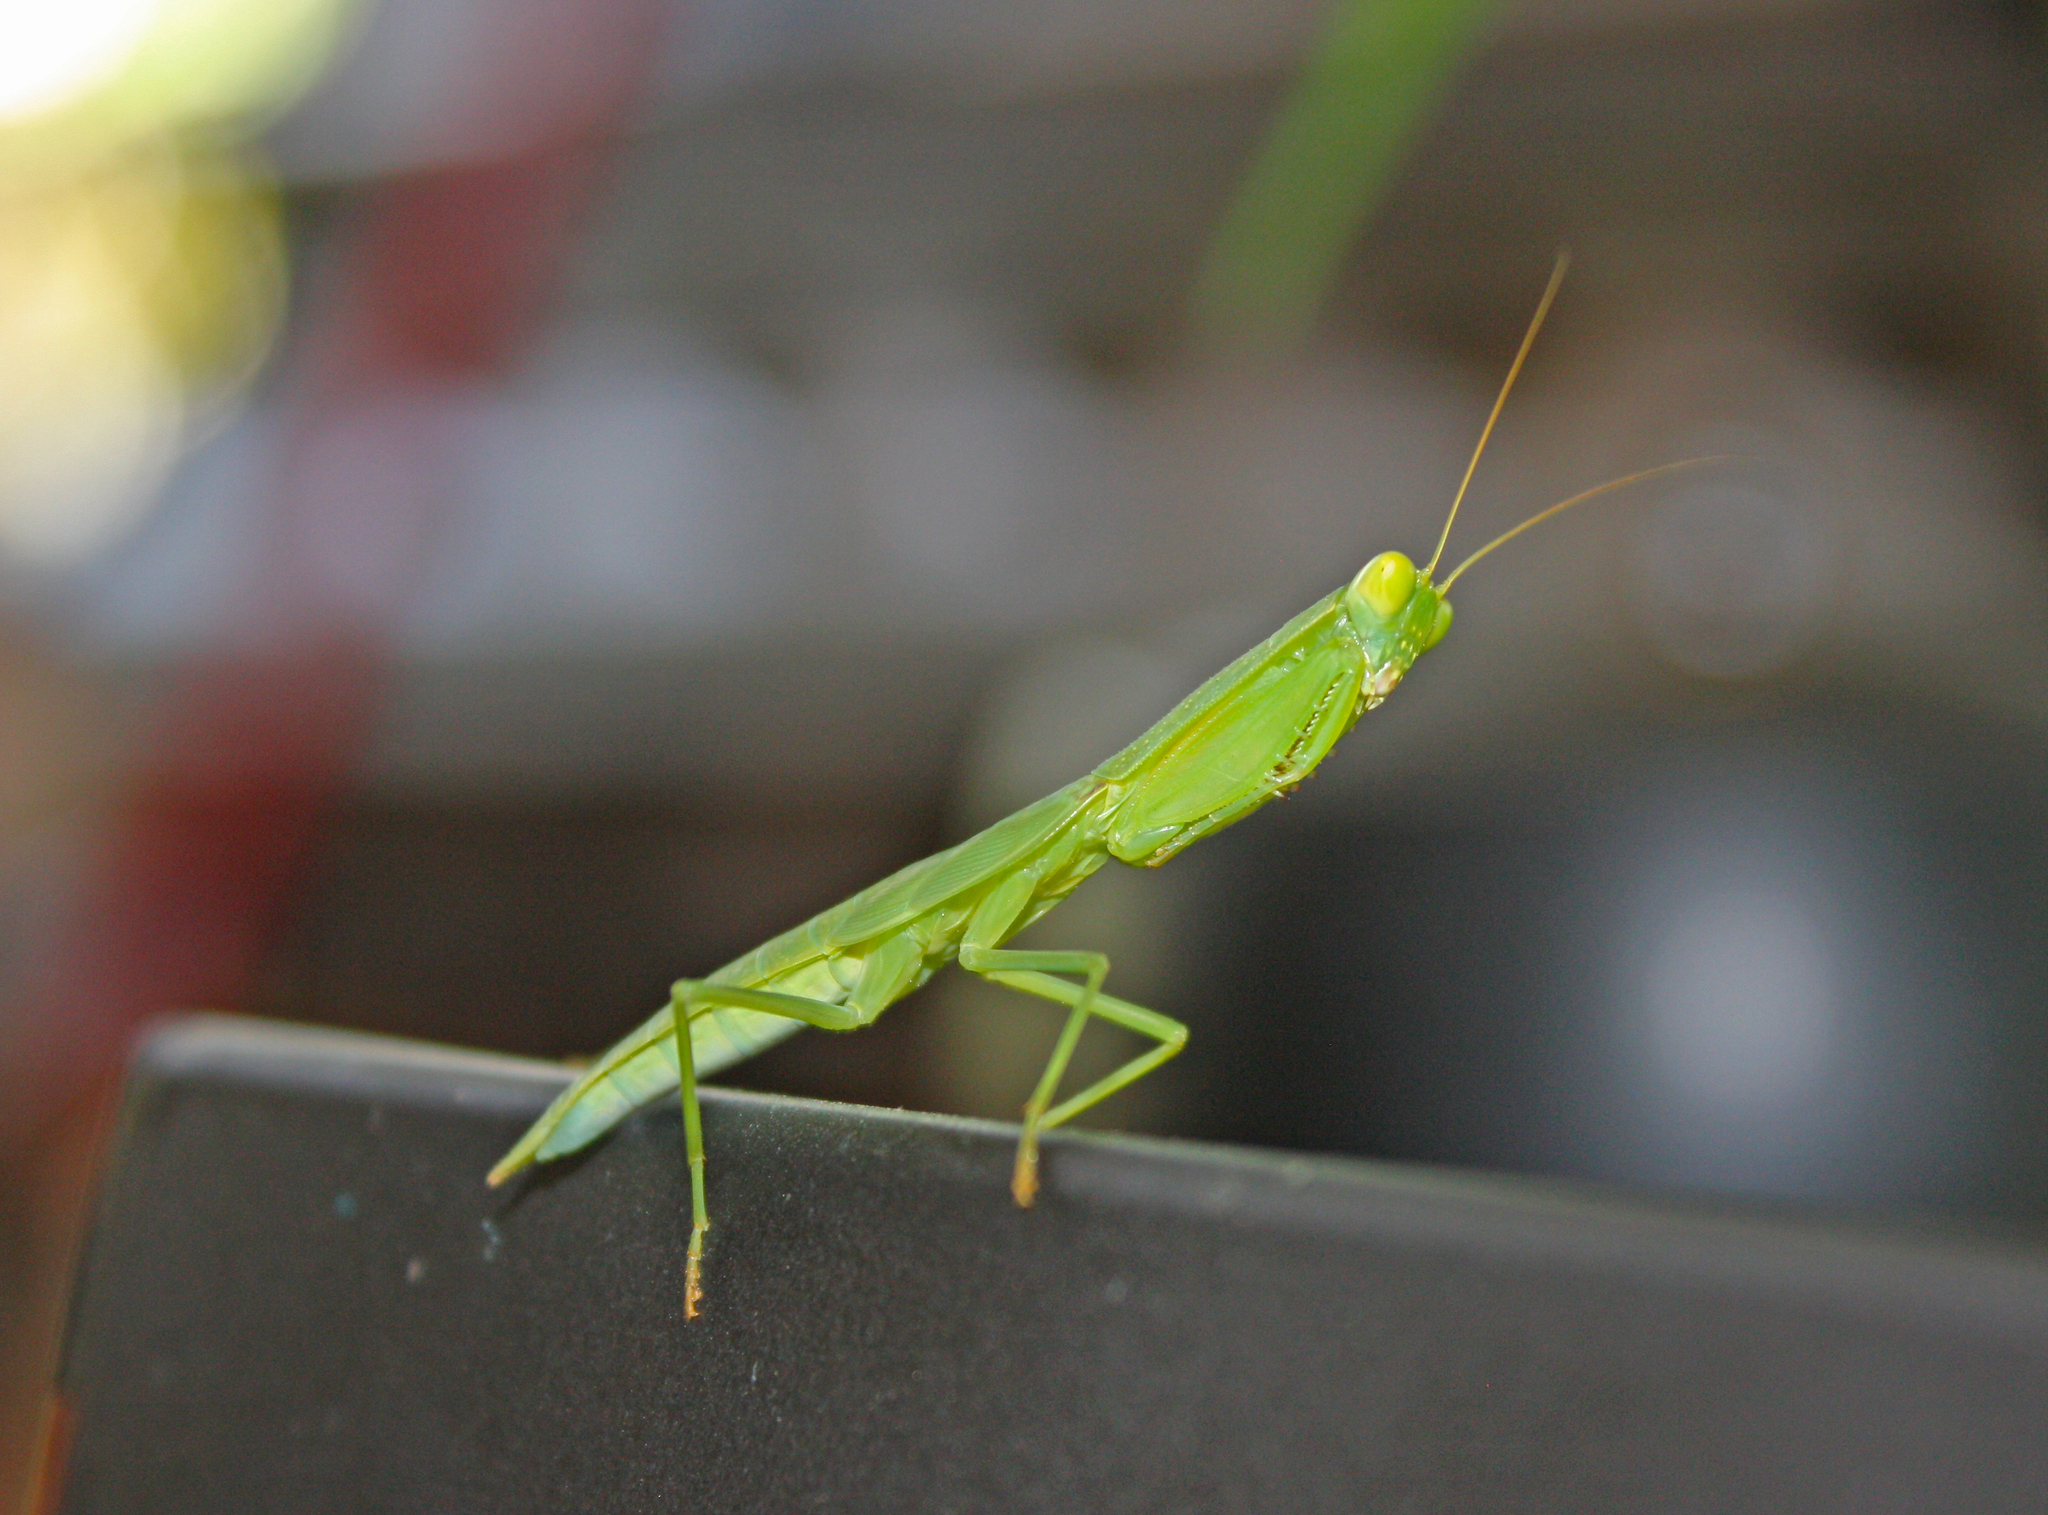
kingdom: Animalia
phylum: Arthropoda
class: Insecta
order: Mantodea
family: Mantidae
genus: Orthodera
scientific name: Orthodera ministralis
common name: Mantis
